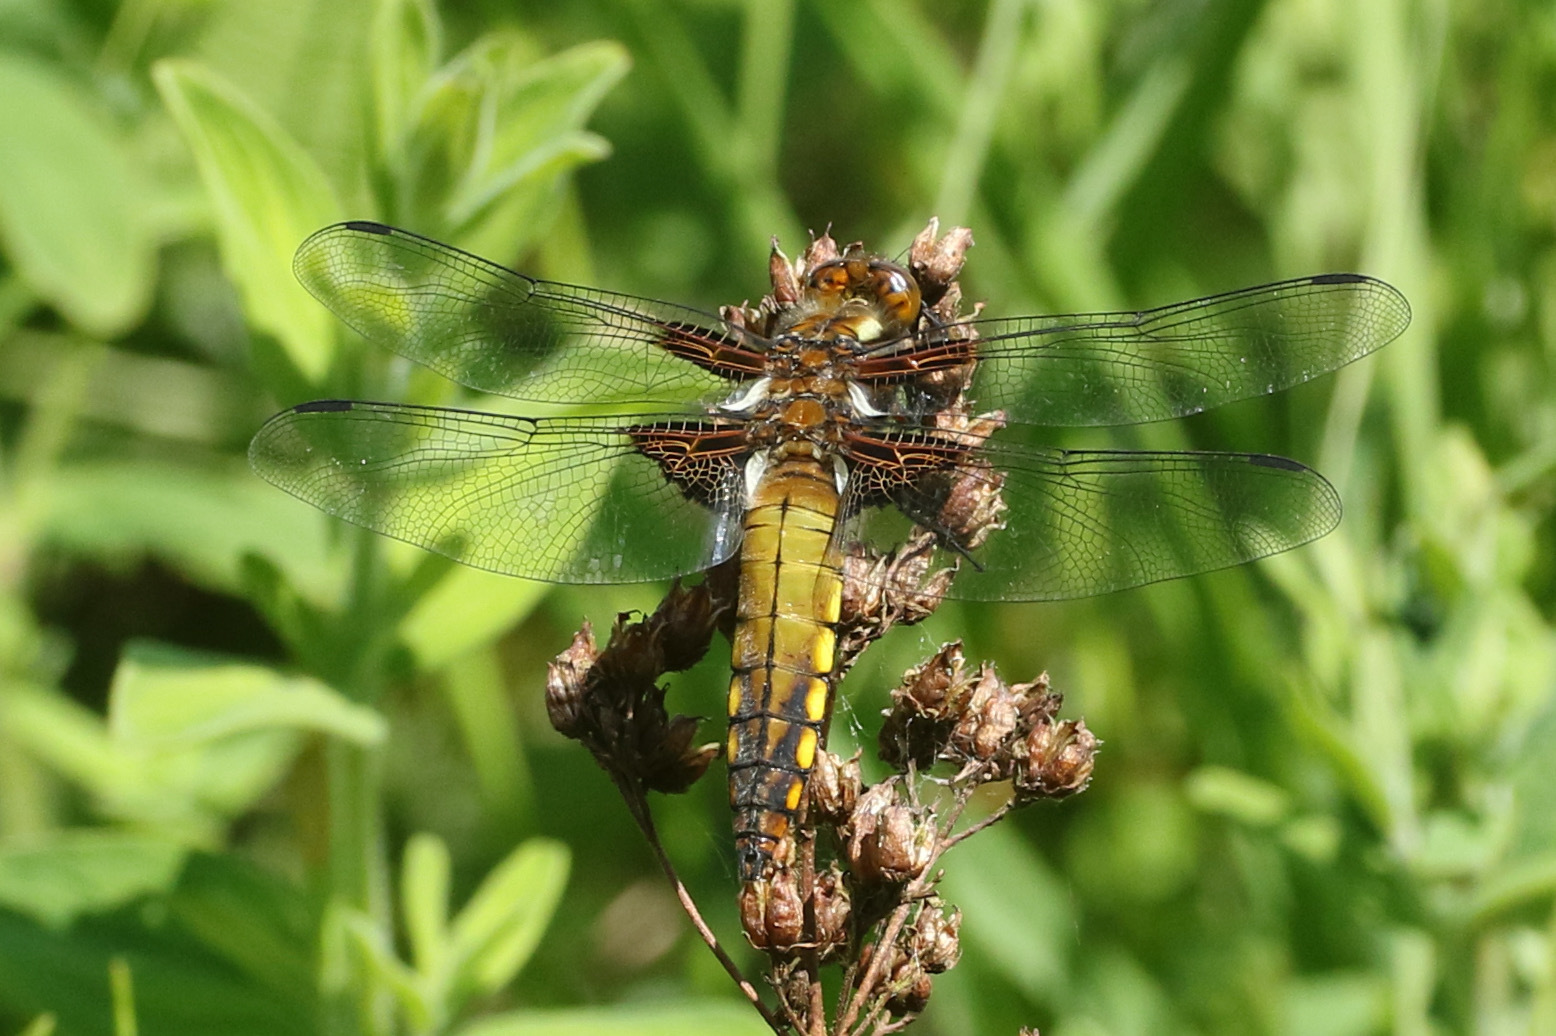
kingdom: Animalia
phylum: Arthropoda
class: Insecta
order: Odonata
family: Libellulidae
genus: Libellula
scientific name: Libellula depressa
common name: Broad-bodied chaser
